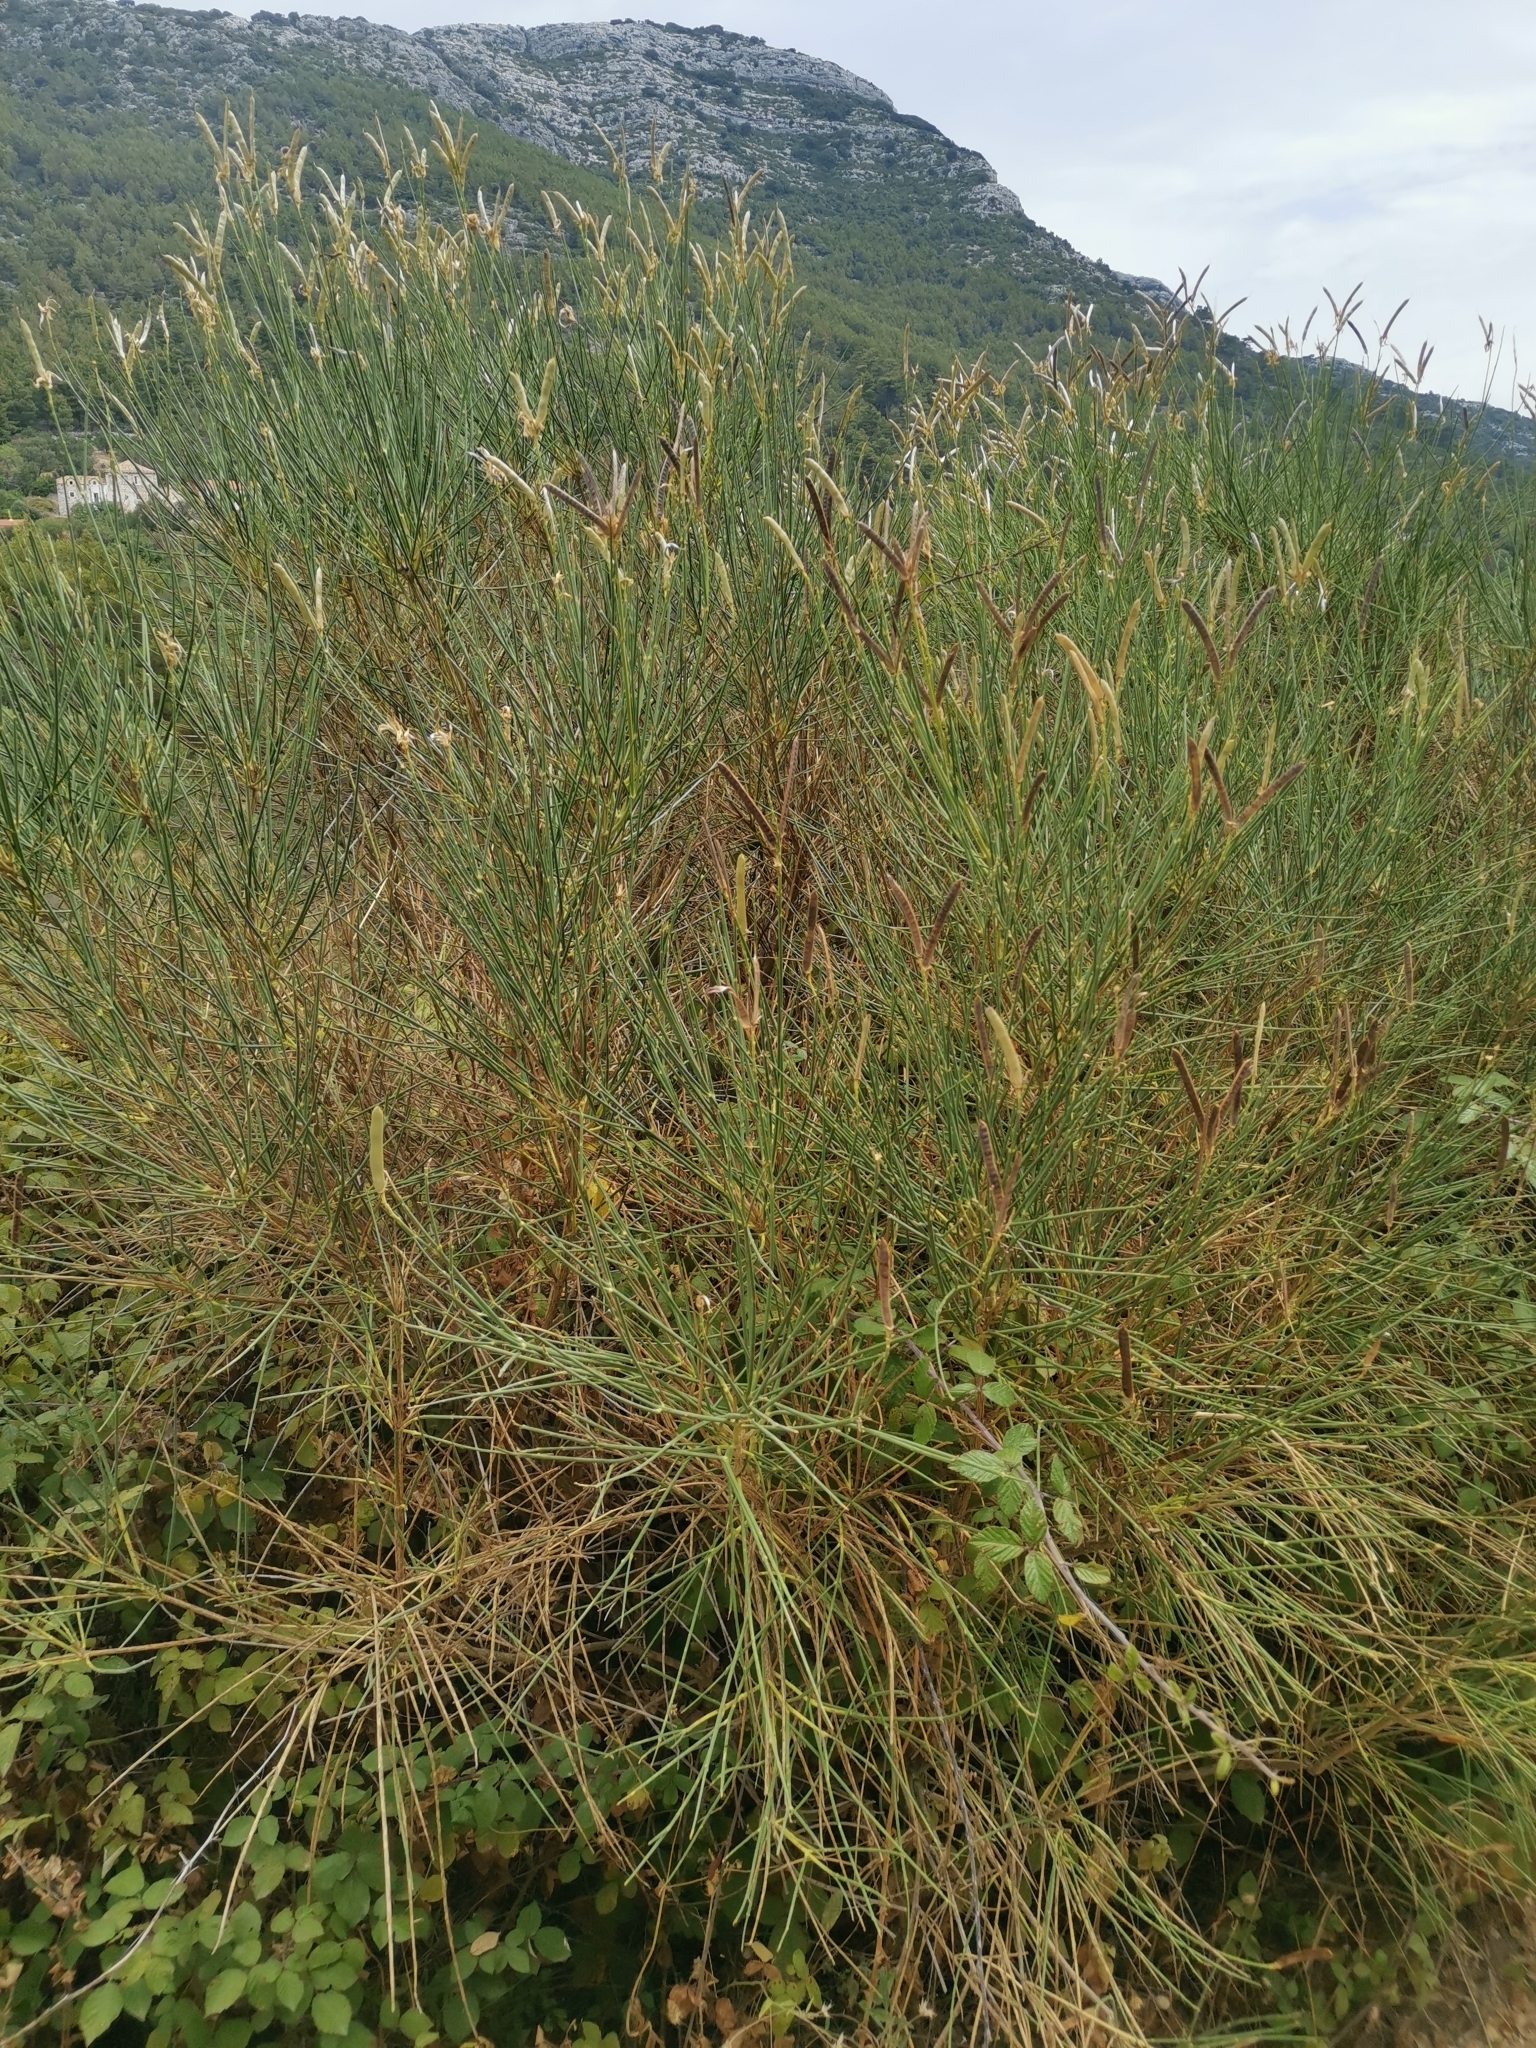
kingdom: Plantae
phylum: Tracheophyta
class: Magnoliopsida
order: Fabales
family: Fabaceae
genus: Spartium
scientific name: Spartium junceum
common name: Spanish broom
